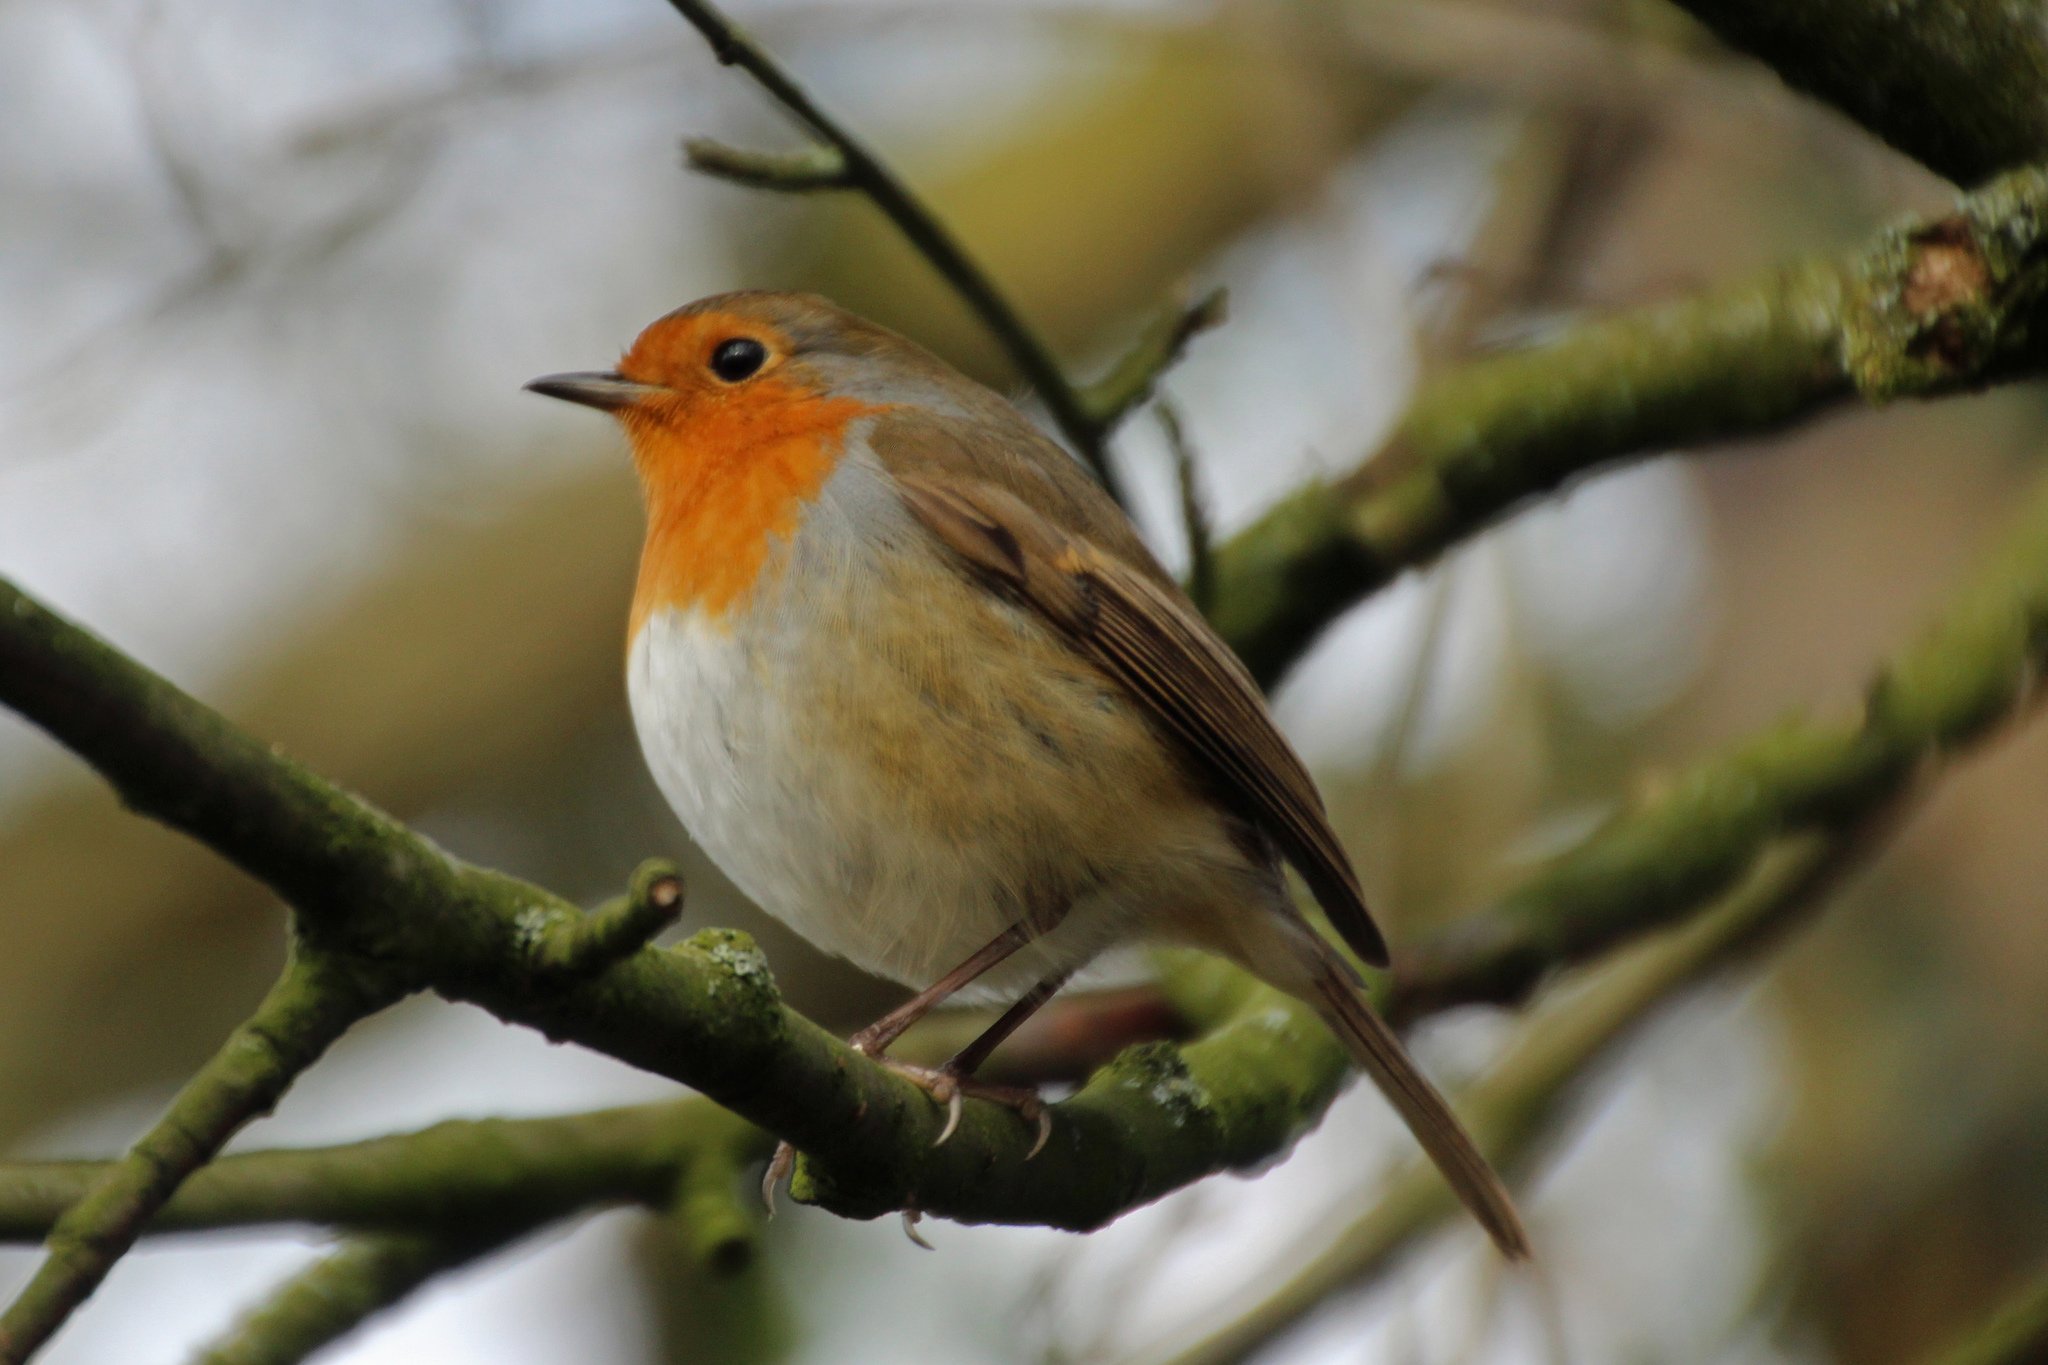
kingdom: Animalia
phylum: Chordata
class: Aves
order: Passeriformes
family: Muscicapidae
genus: Erithacus
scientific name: Erithacus rubecula
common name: European robin
